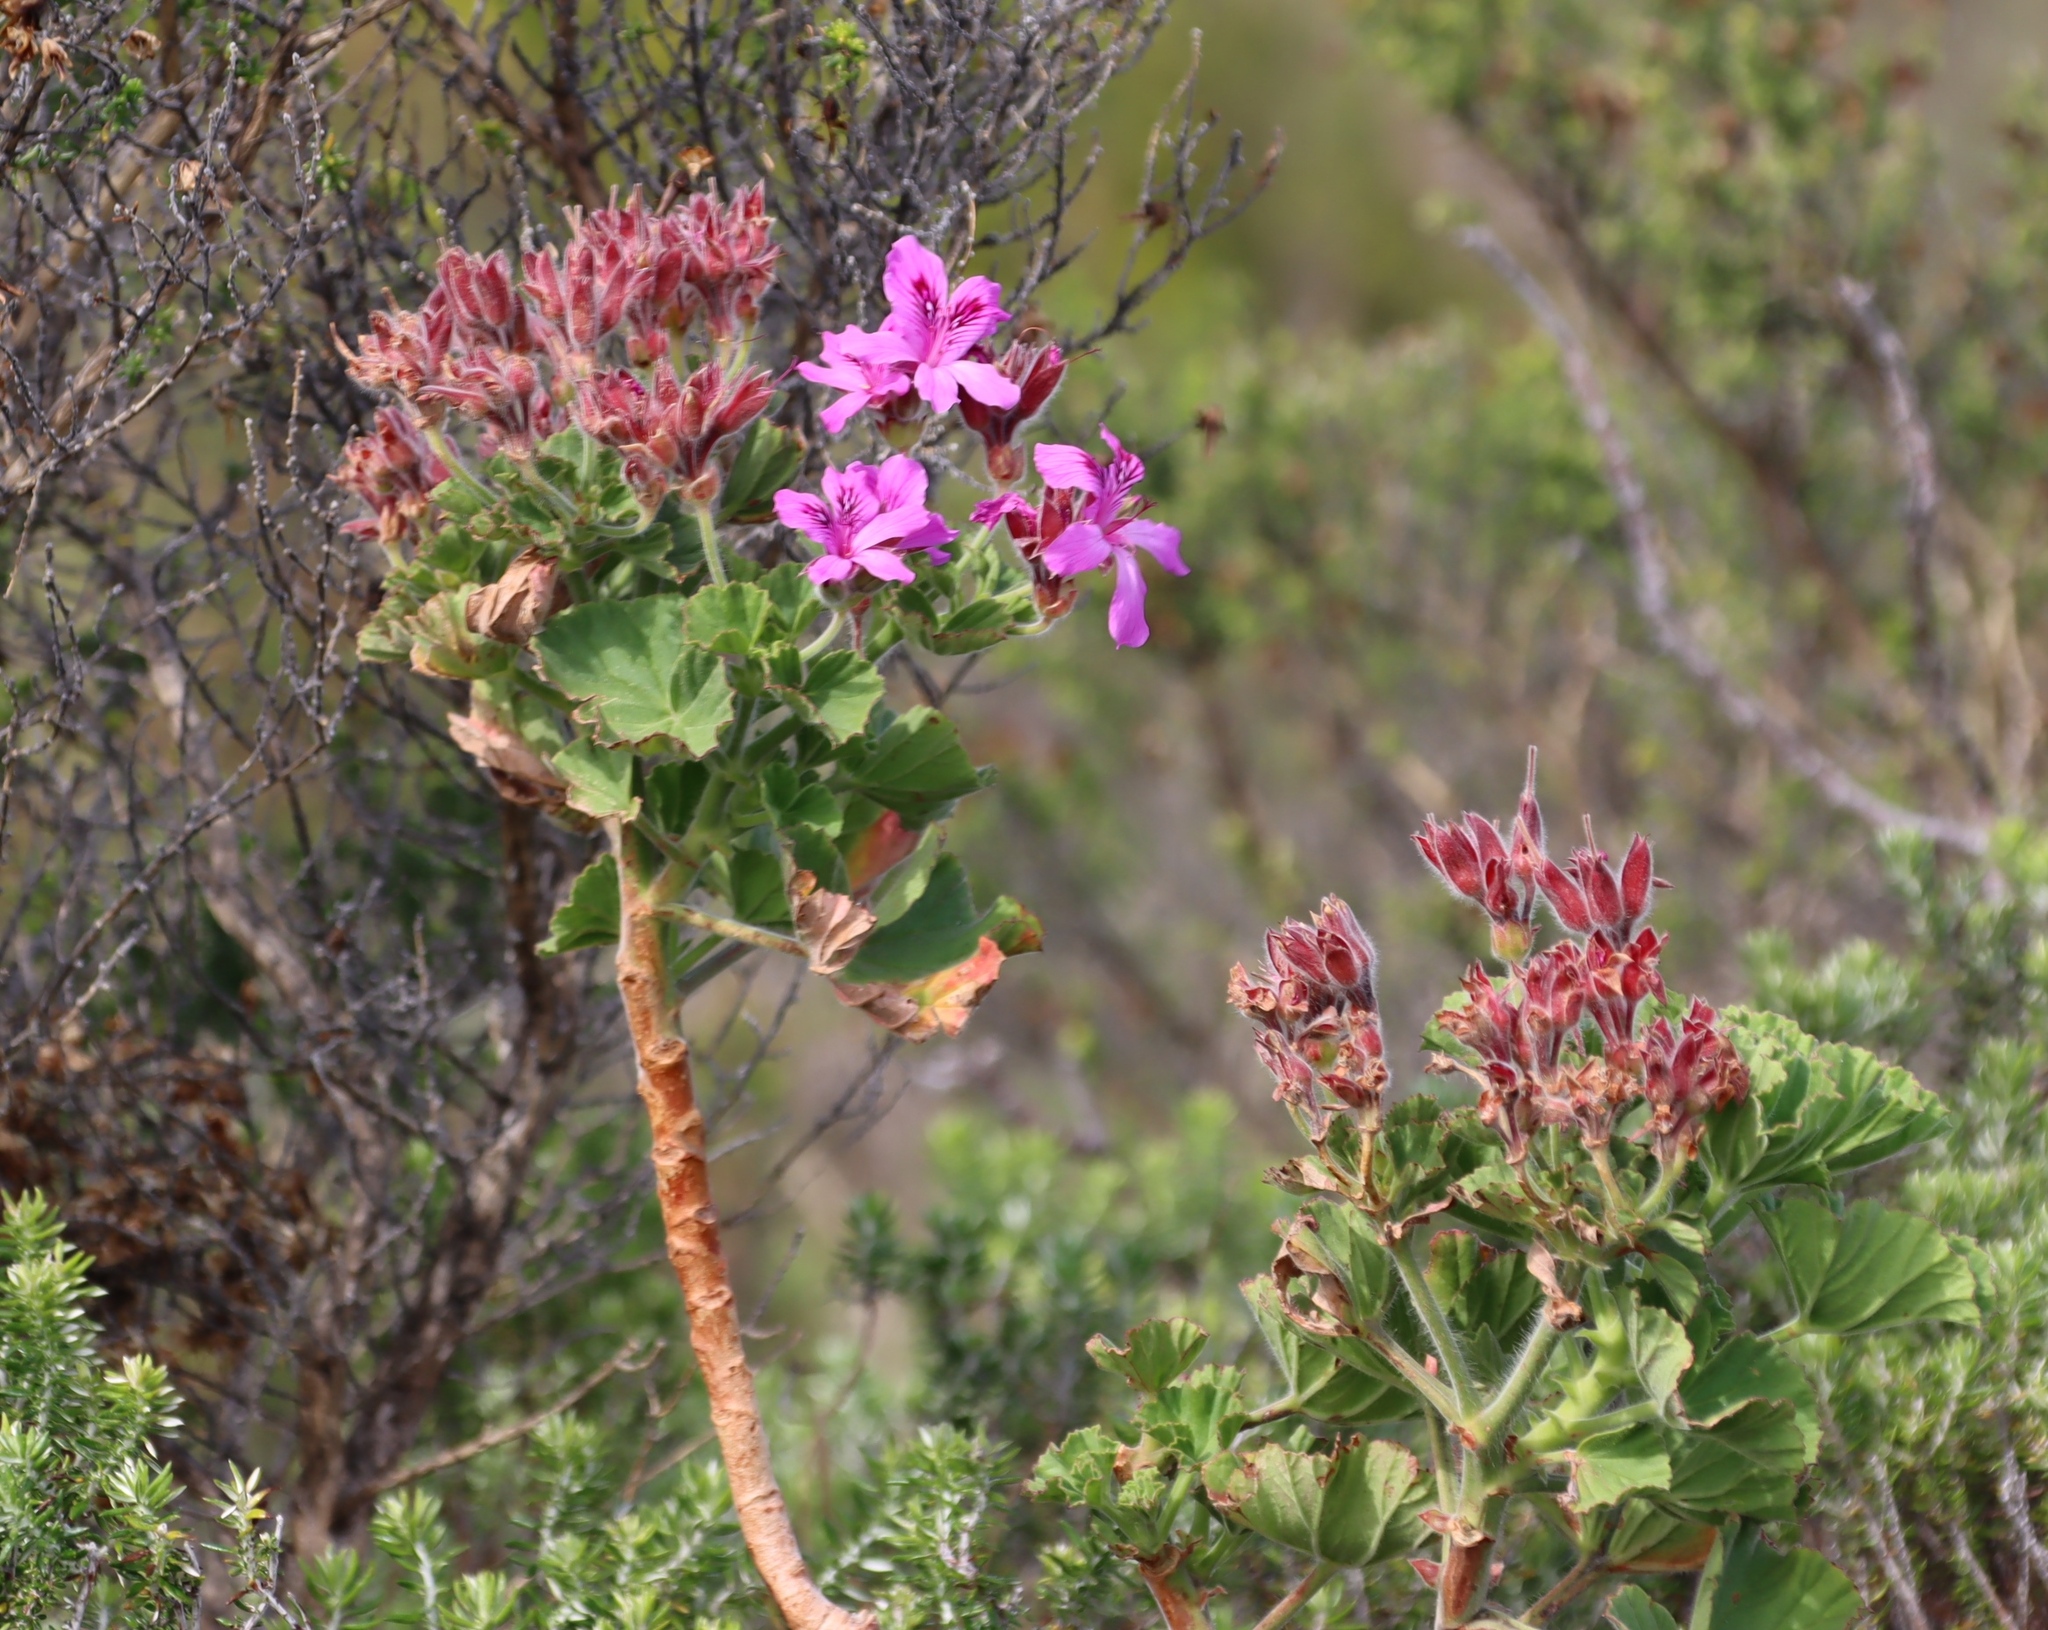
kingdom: Plantae
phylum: Tracheophyta
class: Magnoliopsida
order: Geraniales
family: Geraniaceae
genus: Pelargonium
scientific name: Pelargonium cucullatum
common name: Tree pelargonium
